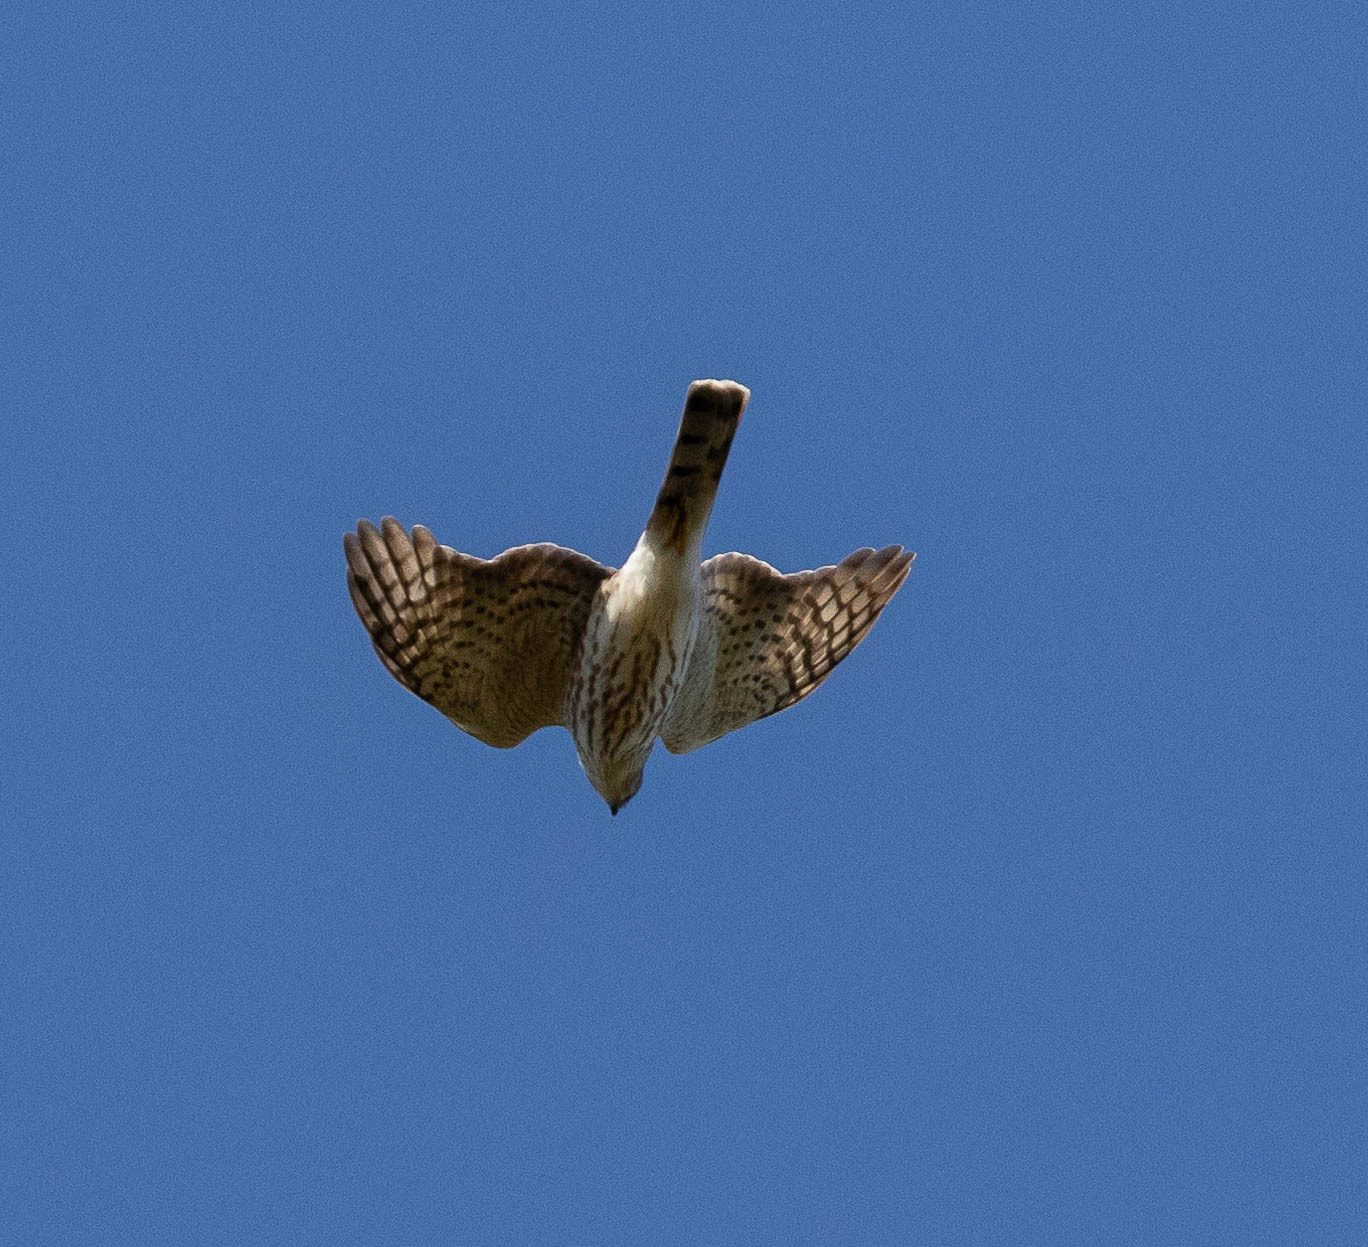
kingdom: Animalia
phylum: Chordata
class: Aves
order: Accipitriformes
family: Accipitridae
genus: Accipiter
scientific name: Accipiter striatus
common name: Sharp-shinned hawk
